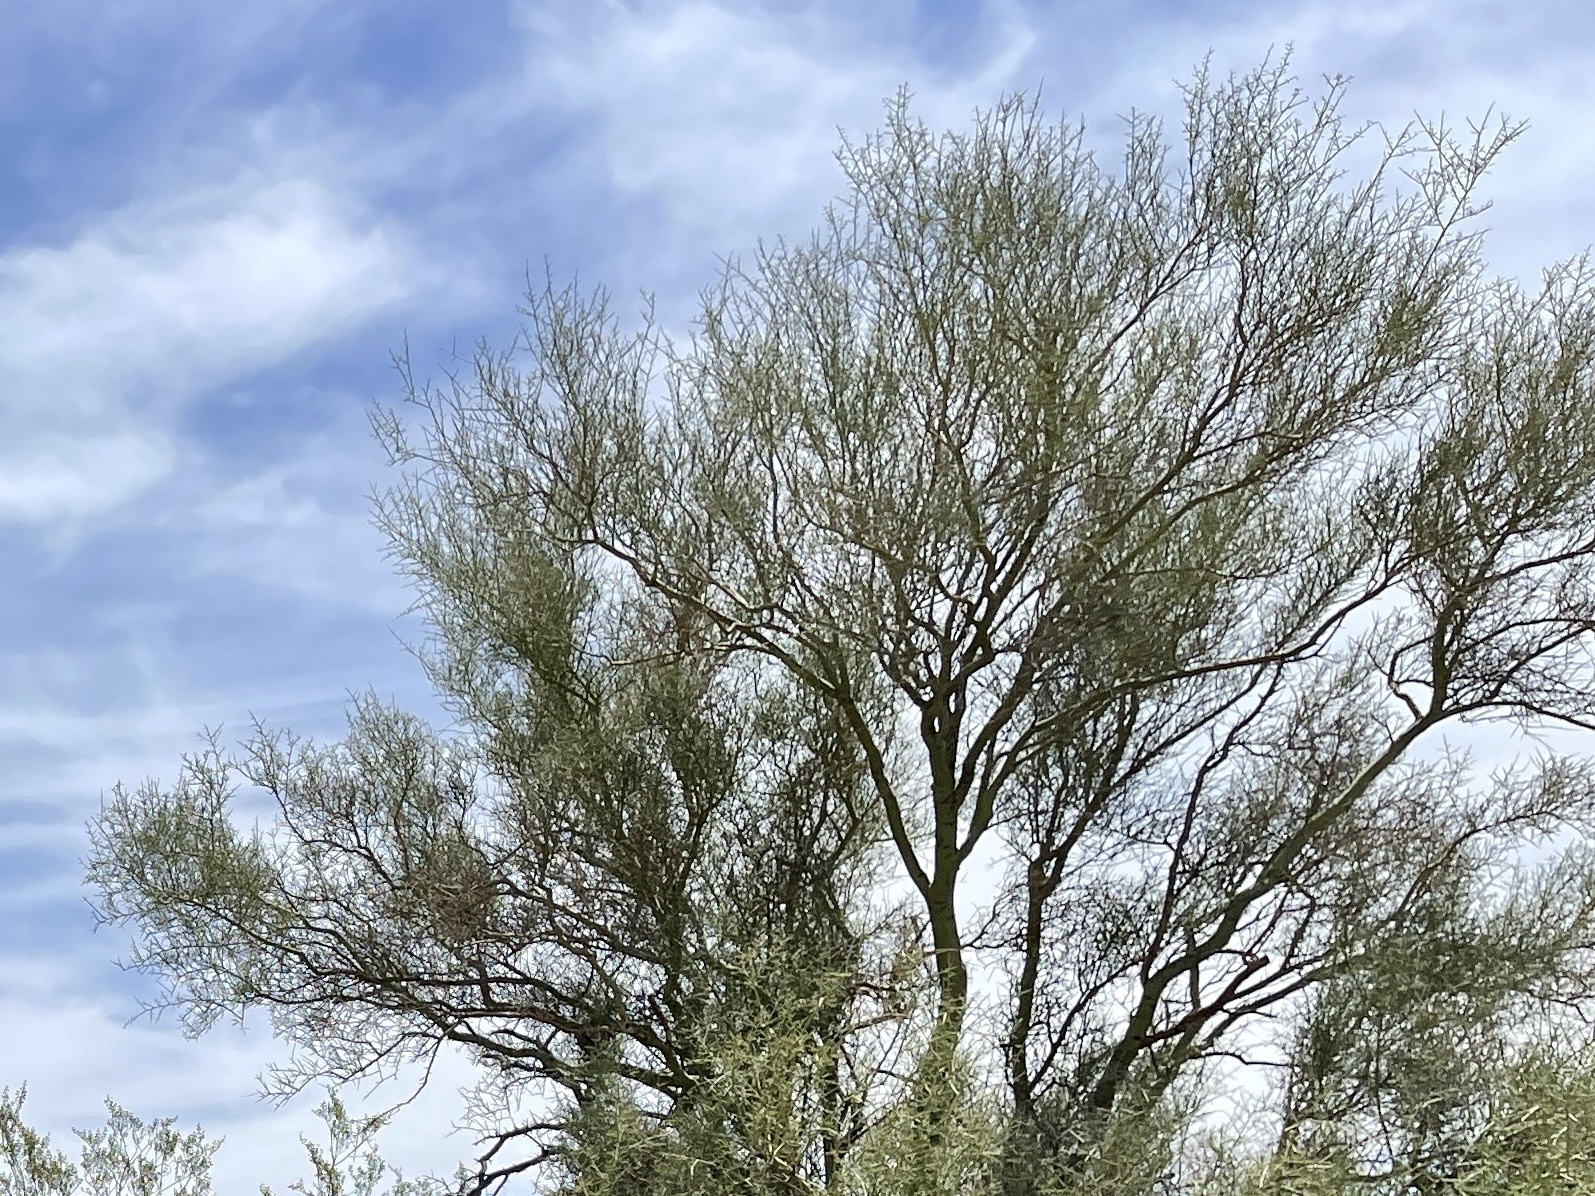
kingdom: Plantae
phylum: Tracheophyta
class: Magnoliopsida
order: Fabales
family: Fabaceae
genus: Parkinsonia
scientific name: Parkinsonia microphylla
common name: Yellow paloverde
